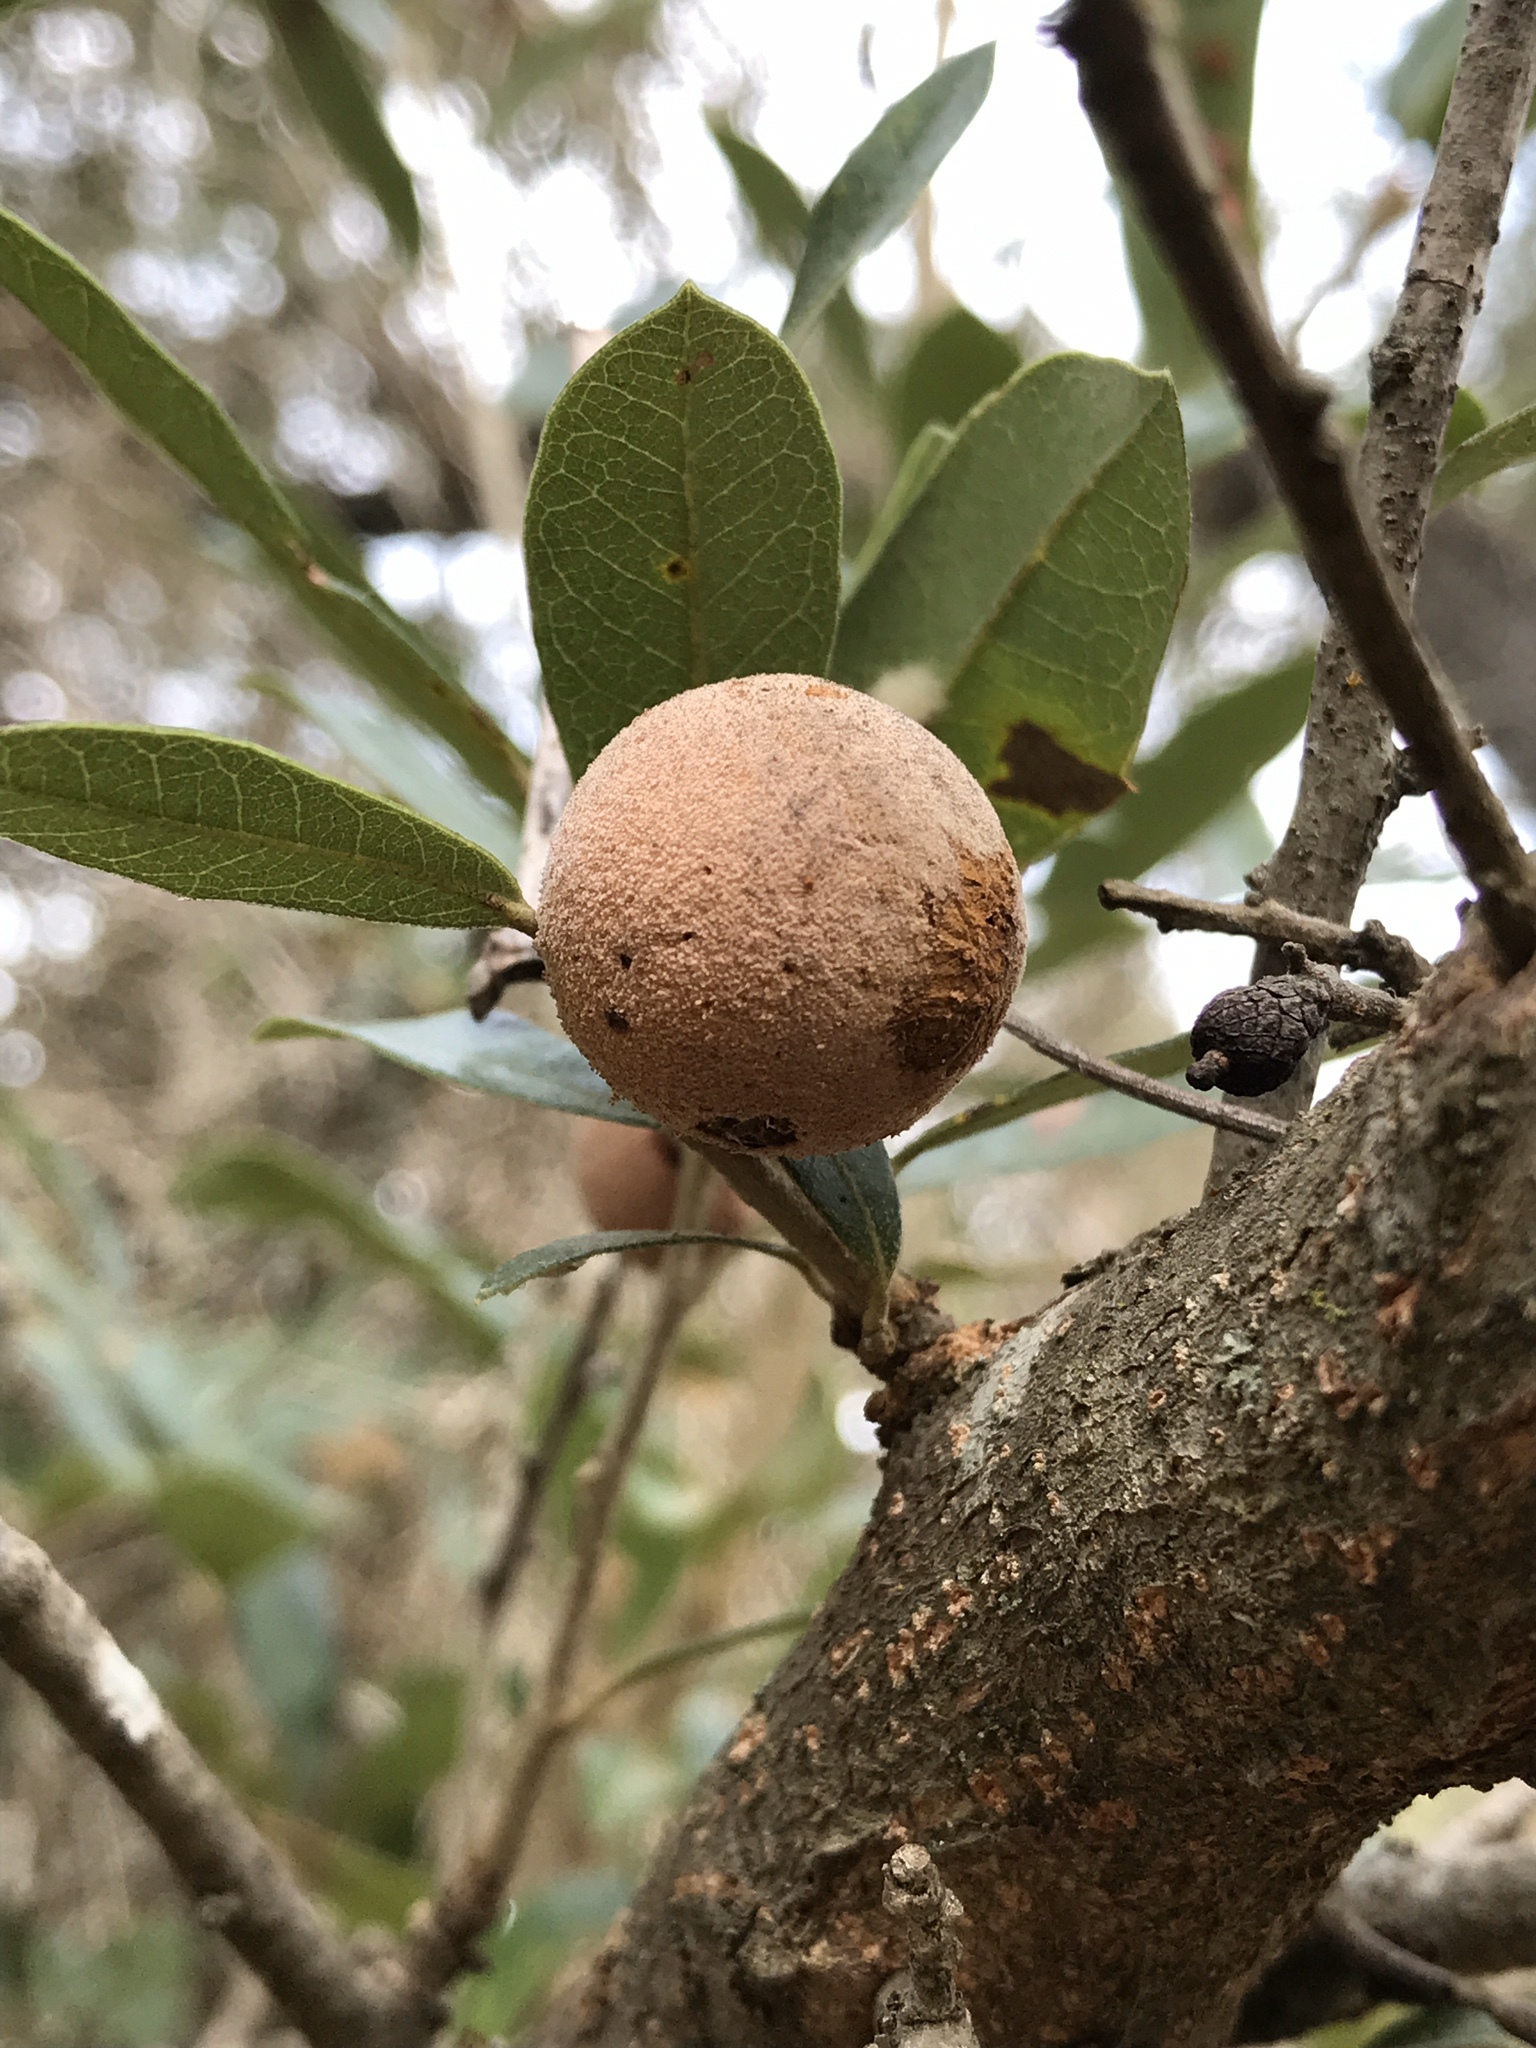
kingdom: Animalia
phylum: Arthropoda
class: Insecta
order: Hymenoptera
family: Cynipidae
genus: Disholcaspis
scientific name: Disholcaspis
